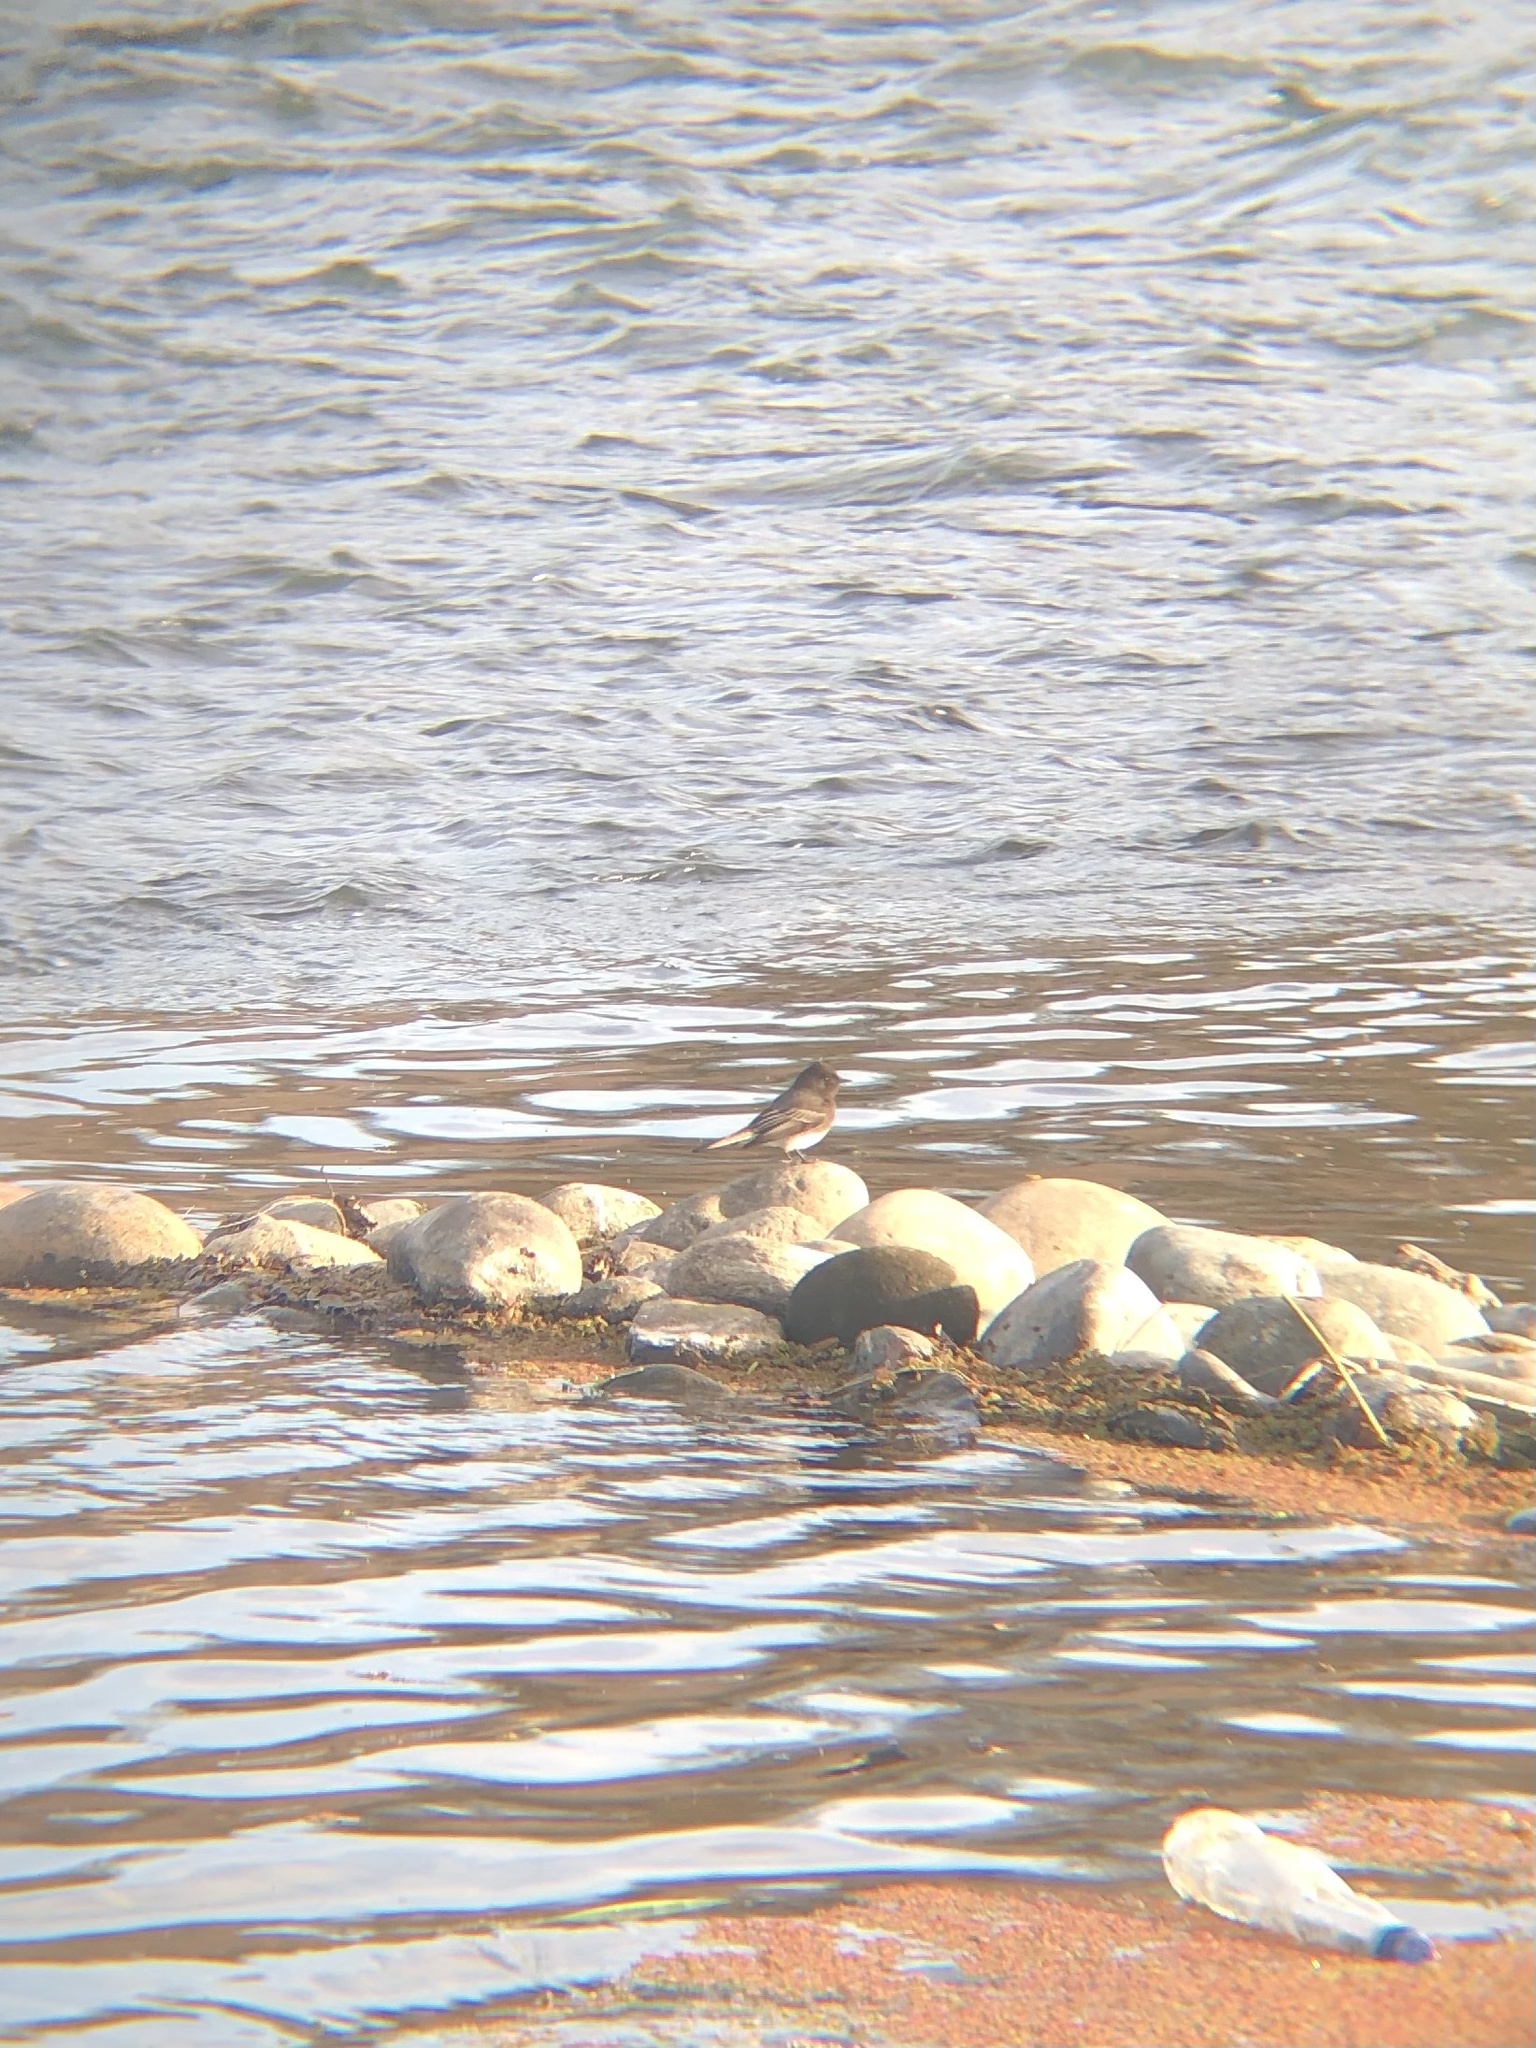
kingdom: Animalia
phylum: Chordata
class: Aves
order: Passeriformes
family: Tyrannidae
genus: Sayornis
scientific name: Sayornis nigricans
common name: Black phoebe
